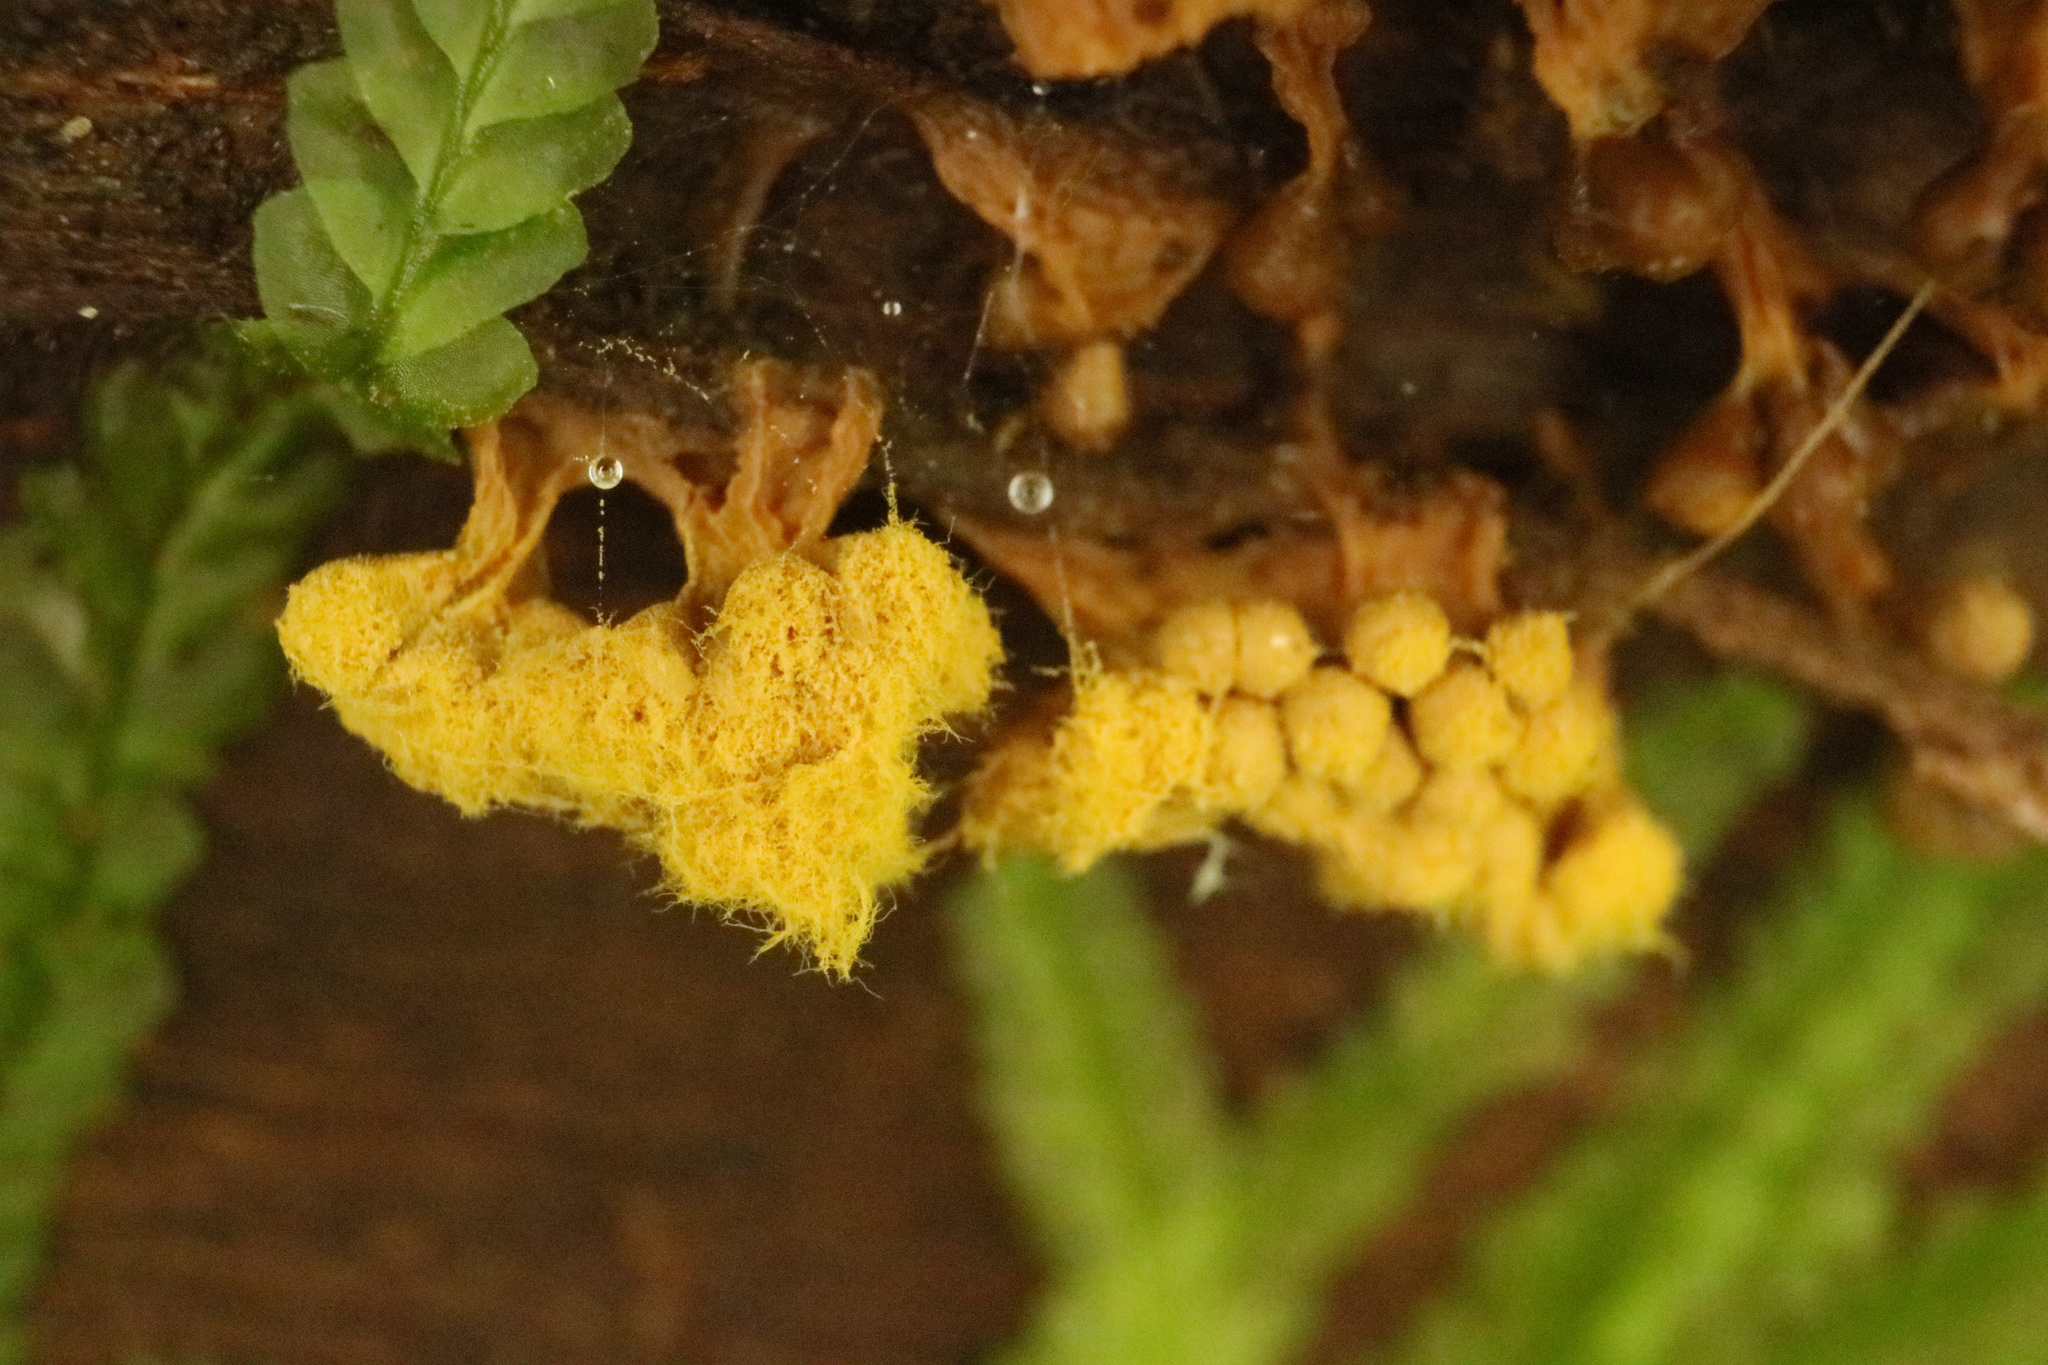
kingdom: Protozoa
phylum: Mycetozoa
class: Myxomycetes
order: Trichiales
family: Trichiaceae
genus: Oligonema
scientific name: Oligonema verrucosum
